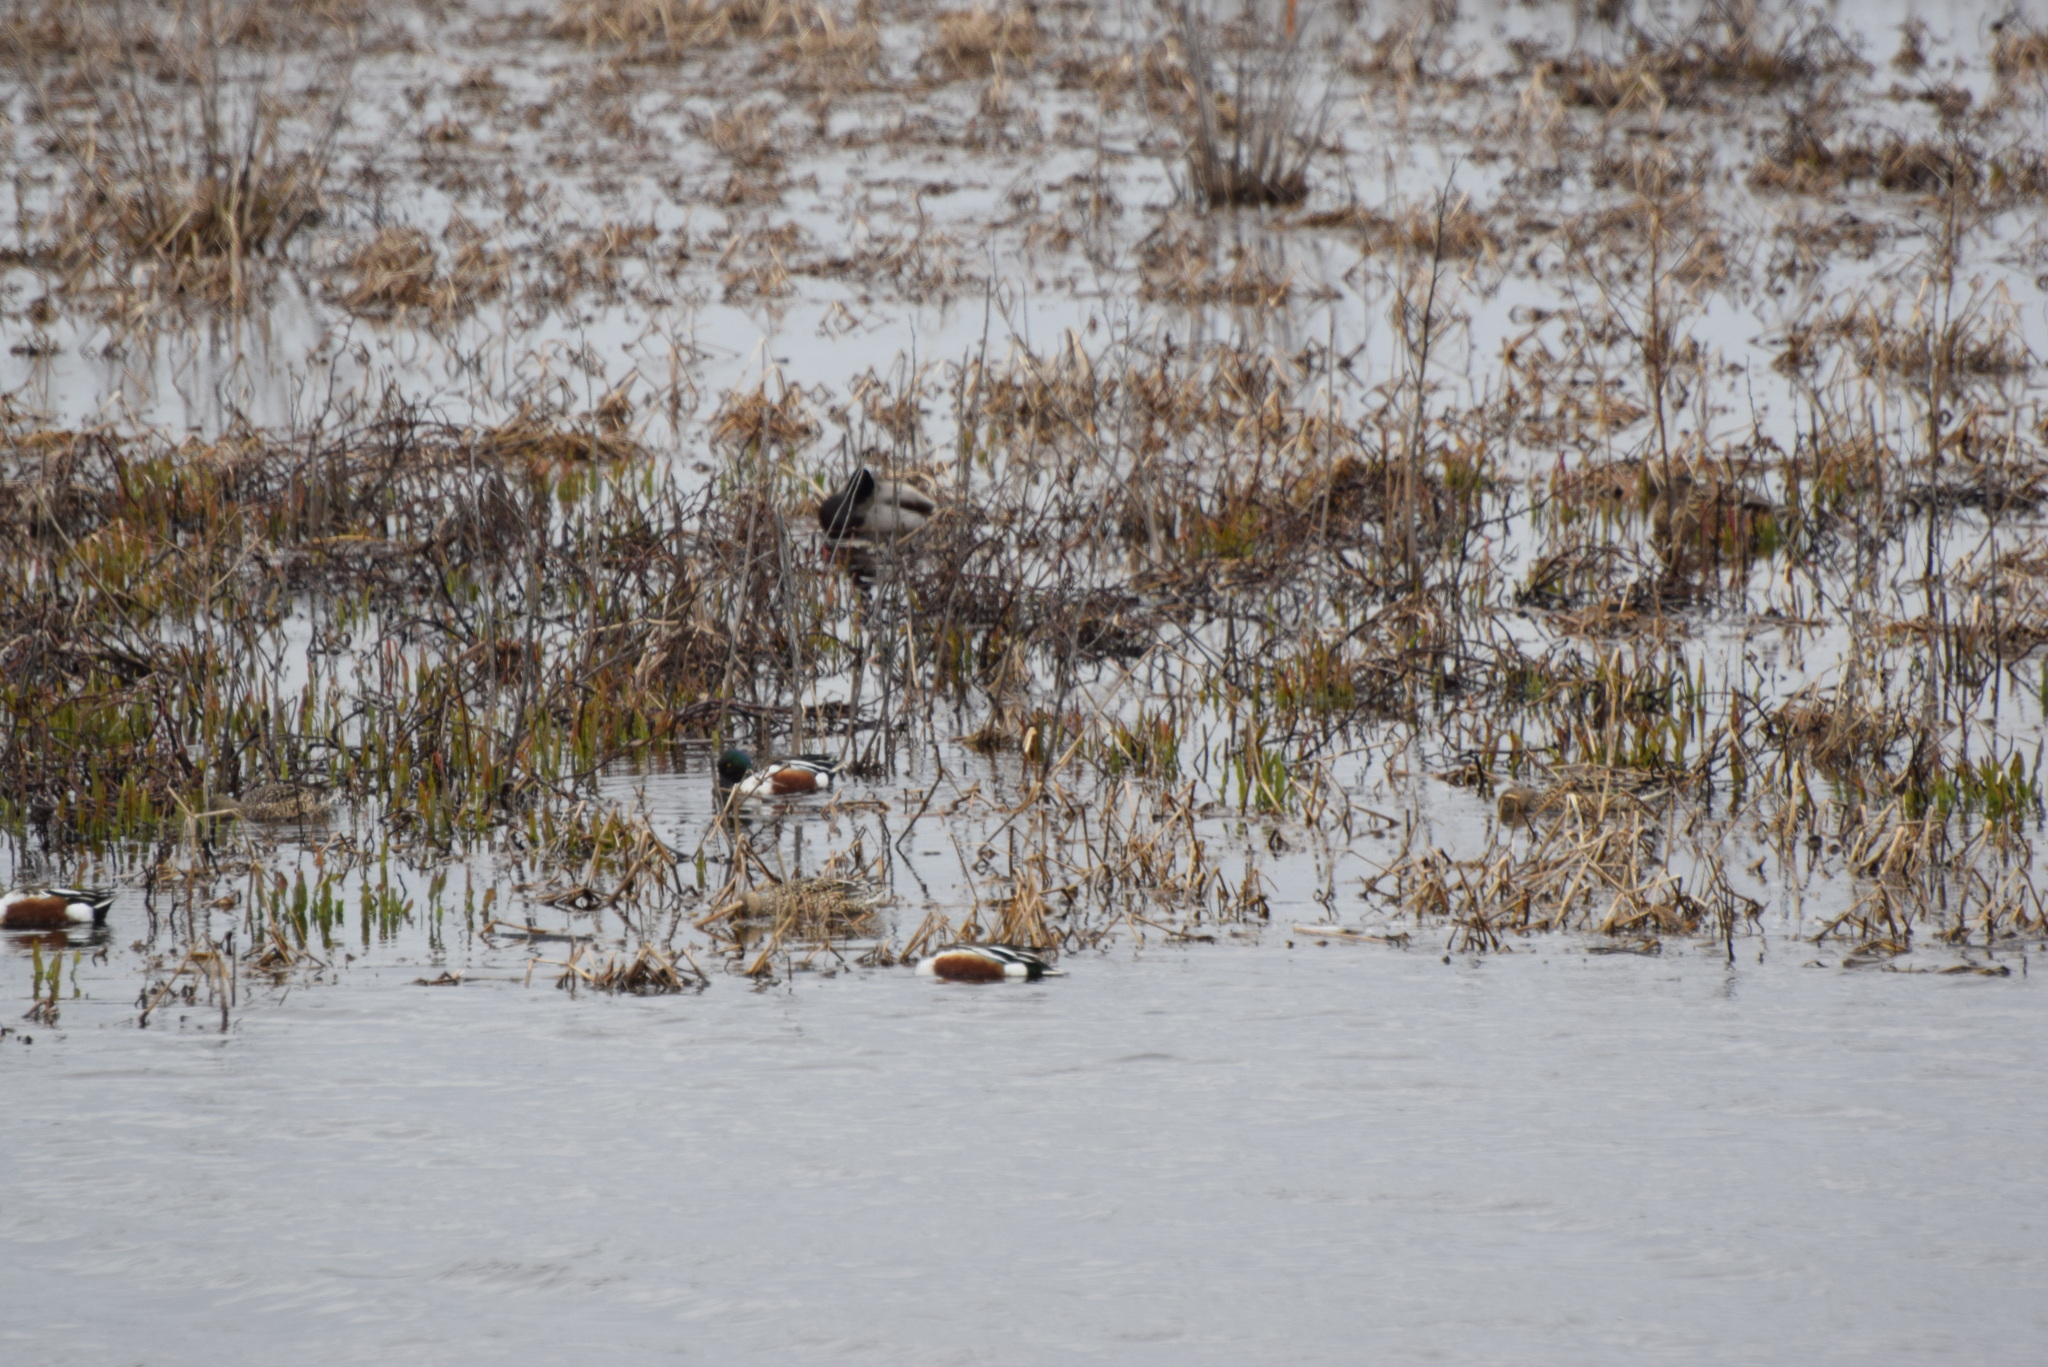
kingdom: Animalia
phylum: Chordata
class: Aves
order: Anseriformes
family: Anatidae
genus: Spatula
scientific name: Spatula clypeata
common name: Northern shoveler
